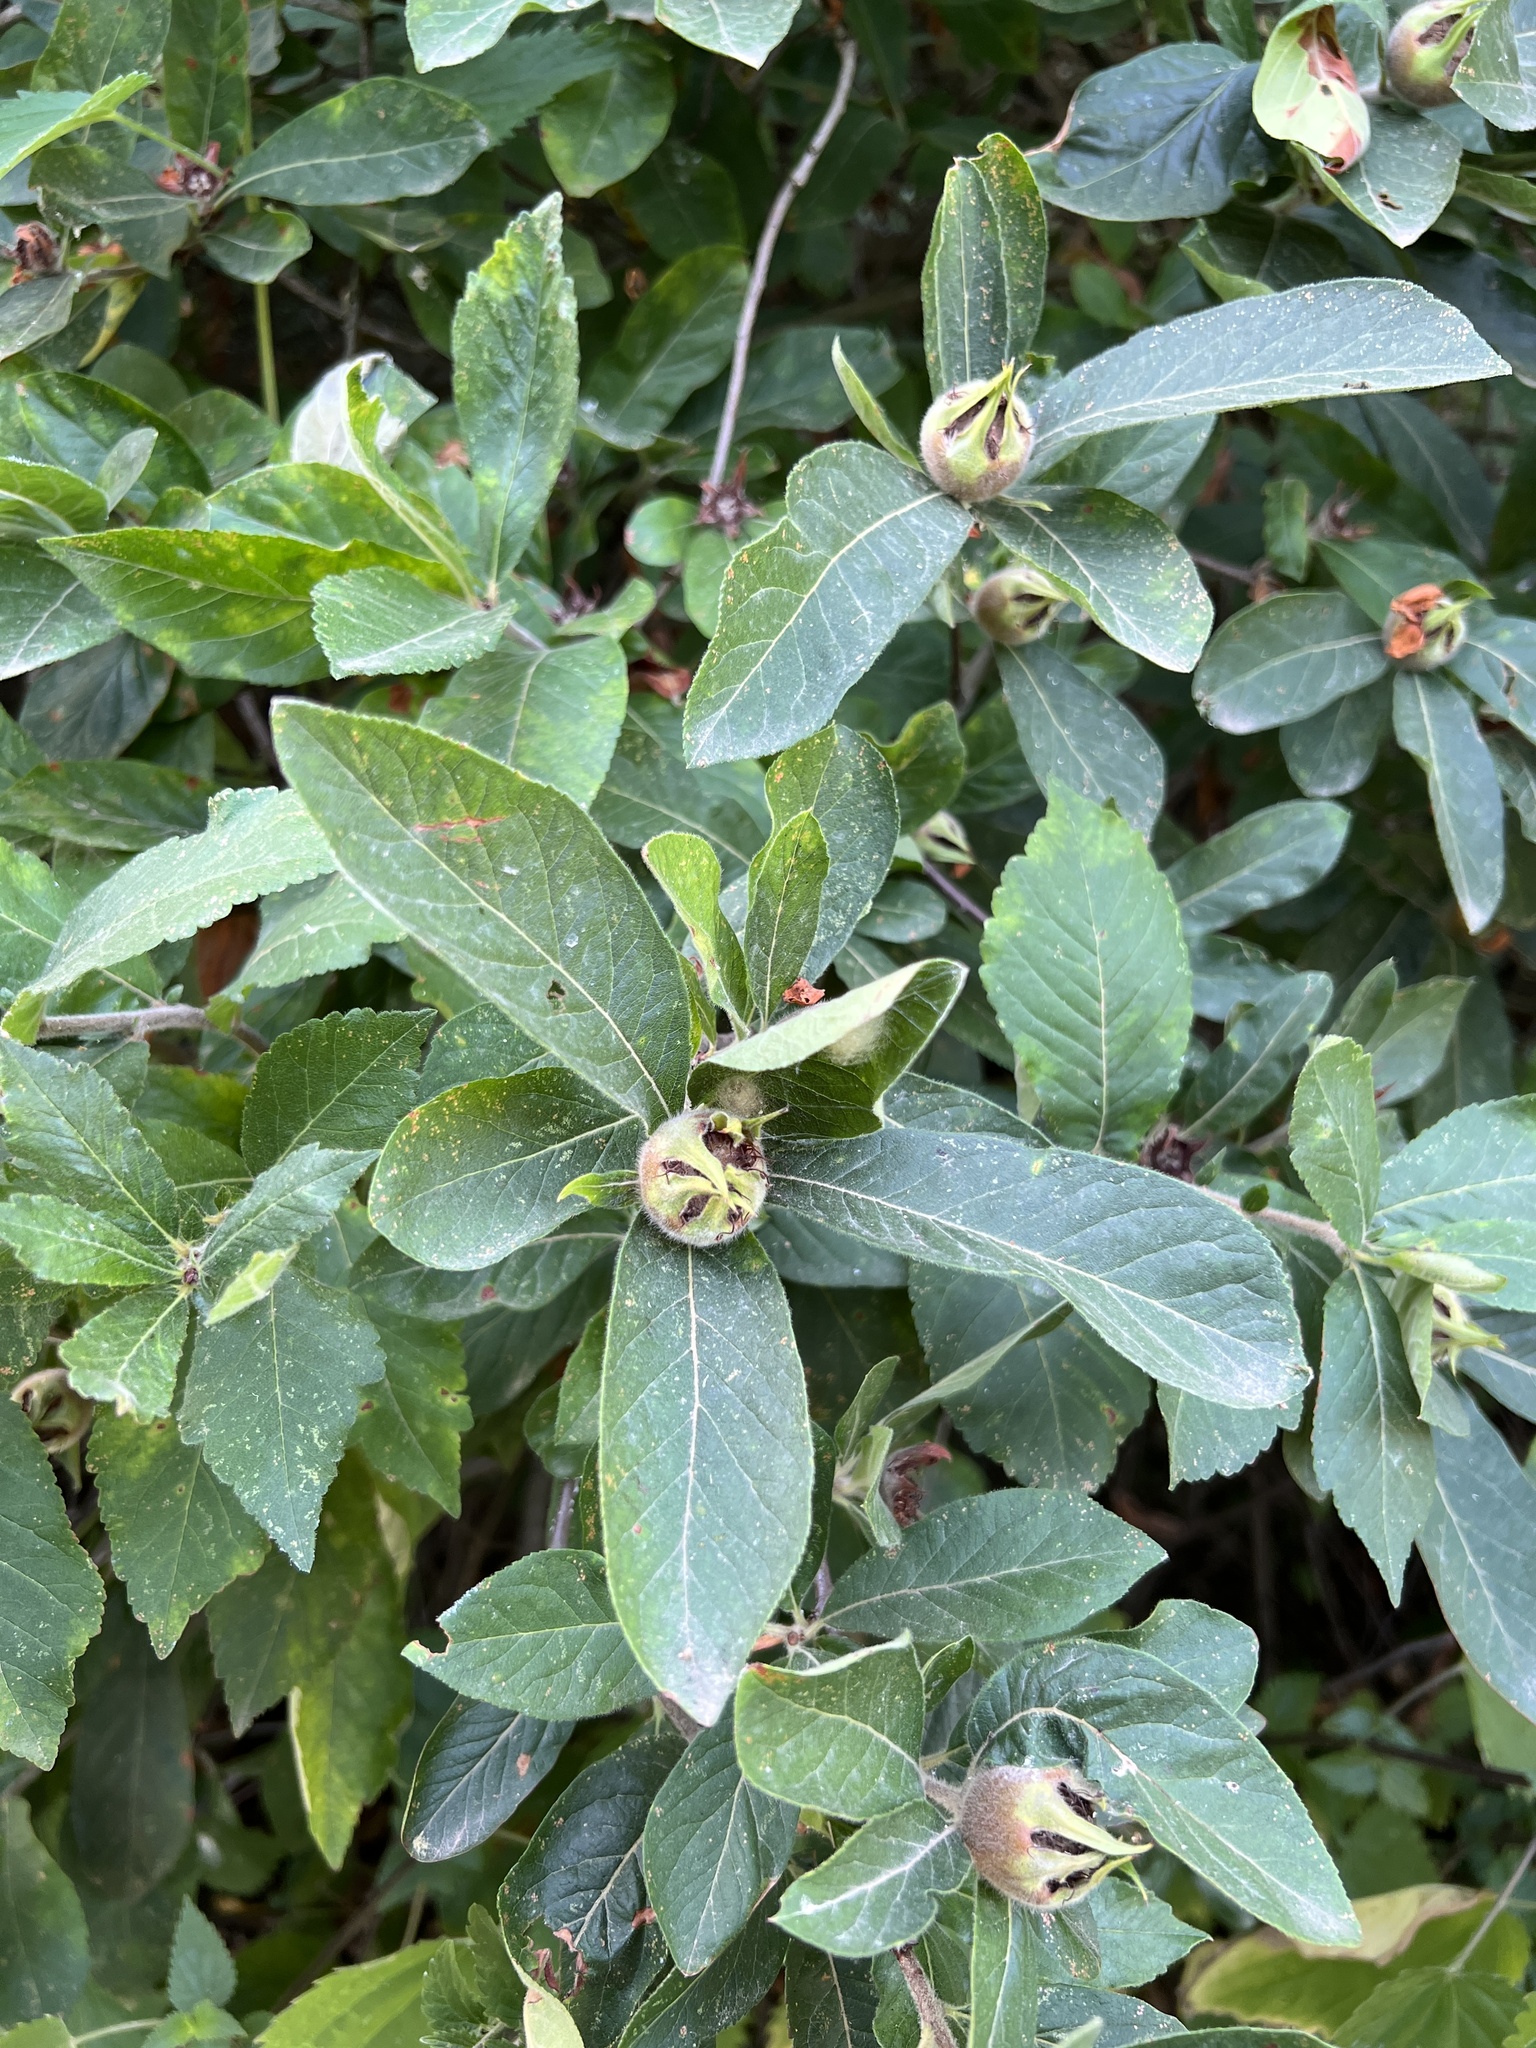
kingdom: Plantae
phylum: Tracheophyta
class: Magnoliopsida
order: Rosales
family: Rosaceae
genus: Mespilus
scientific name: Mespilus germanica
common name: Medlar
